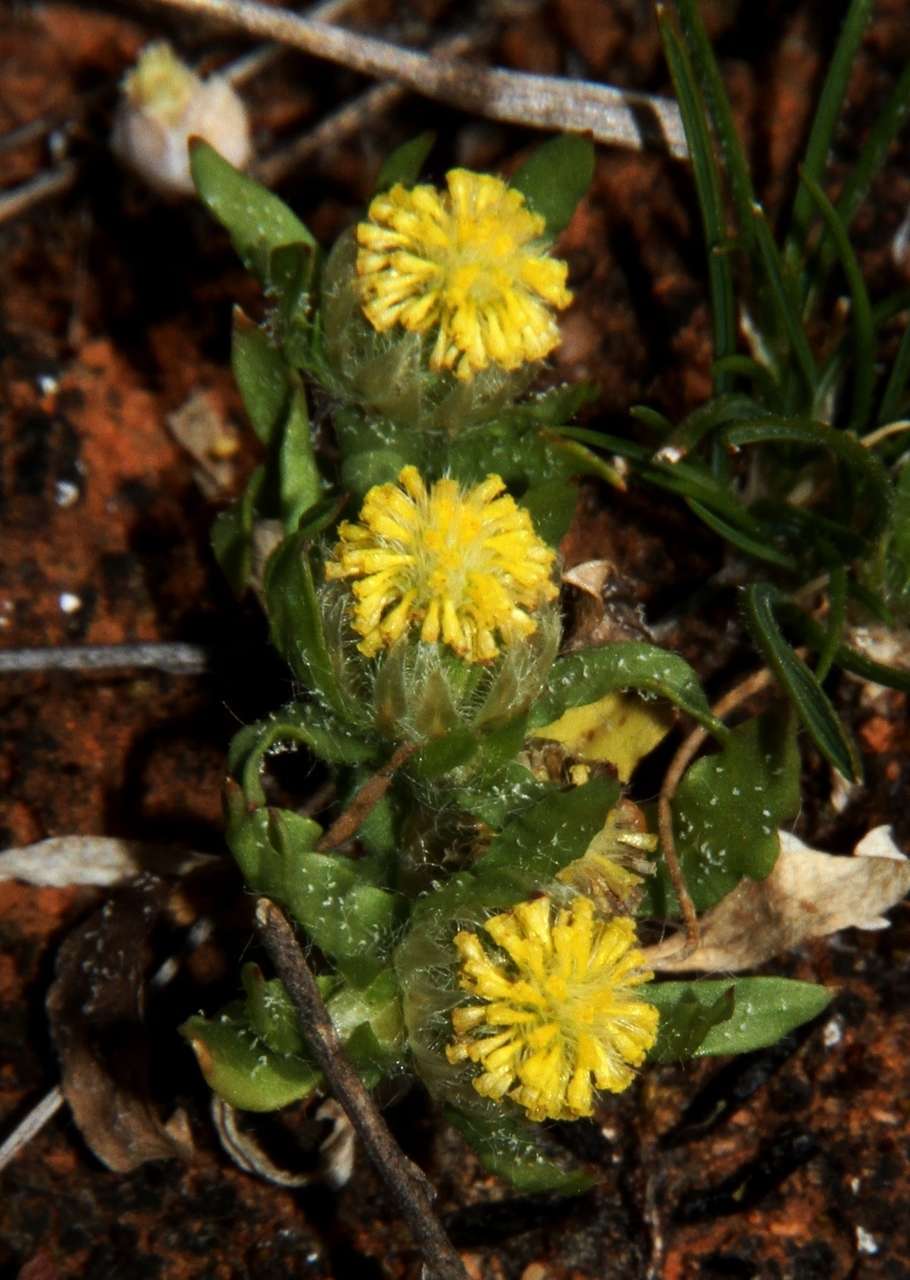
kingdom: Plantae
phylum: Tracheophyta
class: Magnoliopsida
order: Asterales
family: Asteraceae
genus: Triptilodiscus
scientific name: Triptilodiscus pygmaeus
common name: Common sunray
